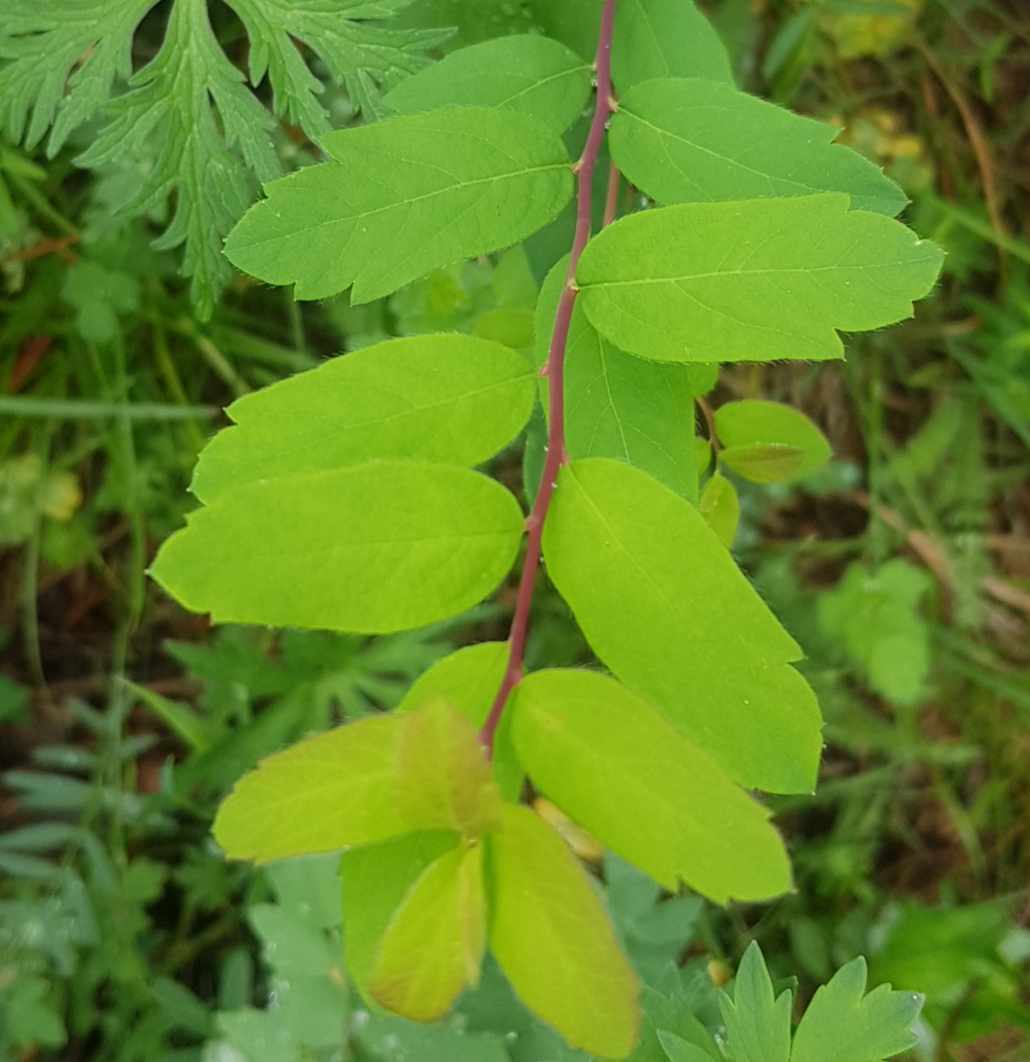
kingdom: Plantae
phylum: Tracheophyta
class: Magnoliopsida
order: Rosales
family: Rosaceae
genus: Spiraea
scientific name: Spiraea media
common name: Russian spiraea
